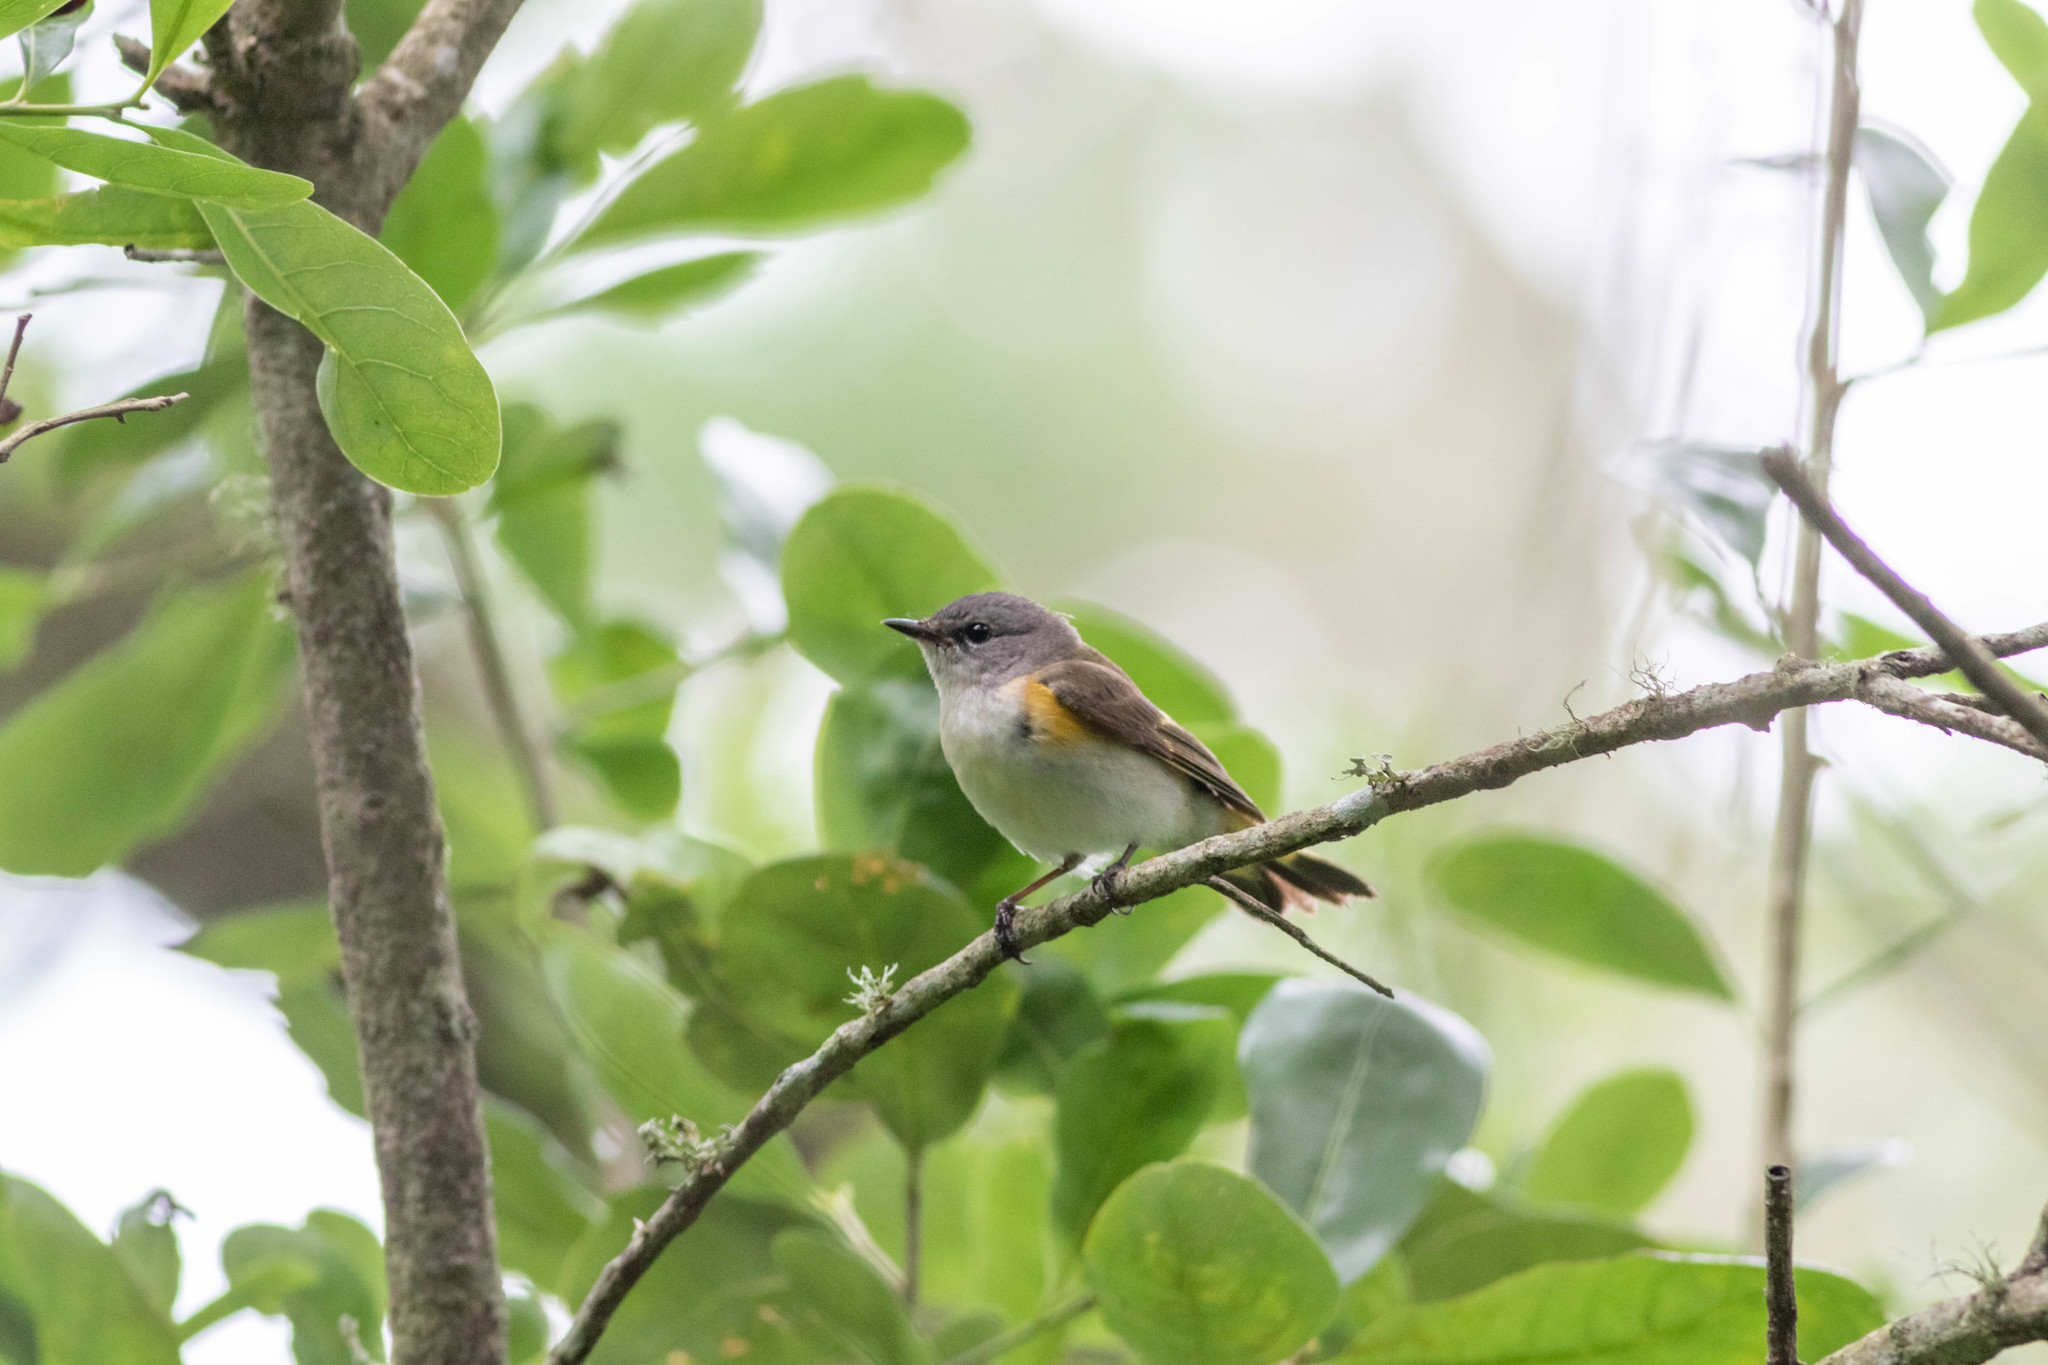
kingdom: Animalia
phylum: Chordata
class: Aves
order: Passeriformes
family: Parulidae
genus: Setophaga
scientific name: Setophaga ruticilla
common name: American redstart
